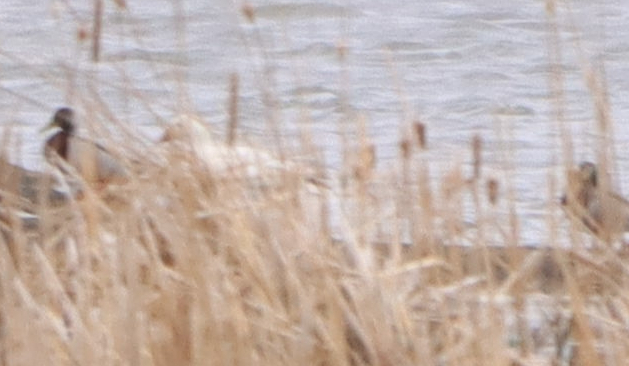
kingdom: Animalia
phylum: Chordata
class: Aves
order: Anseriformes
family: Anatidae
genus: Anser
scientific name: Anser caerulescens
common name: Snow goose
